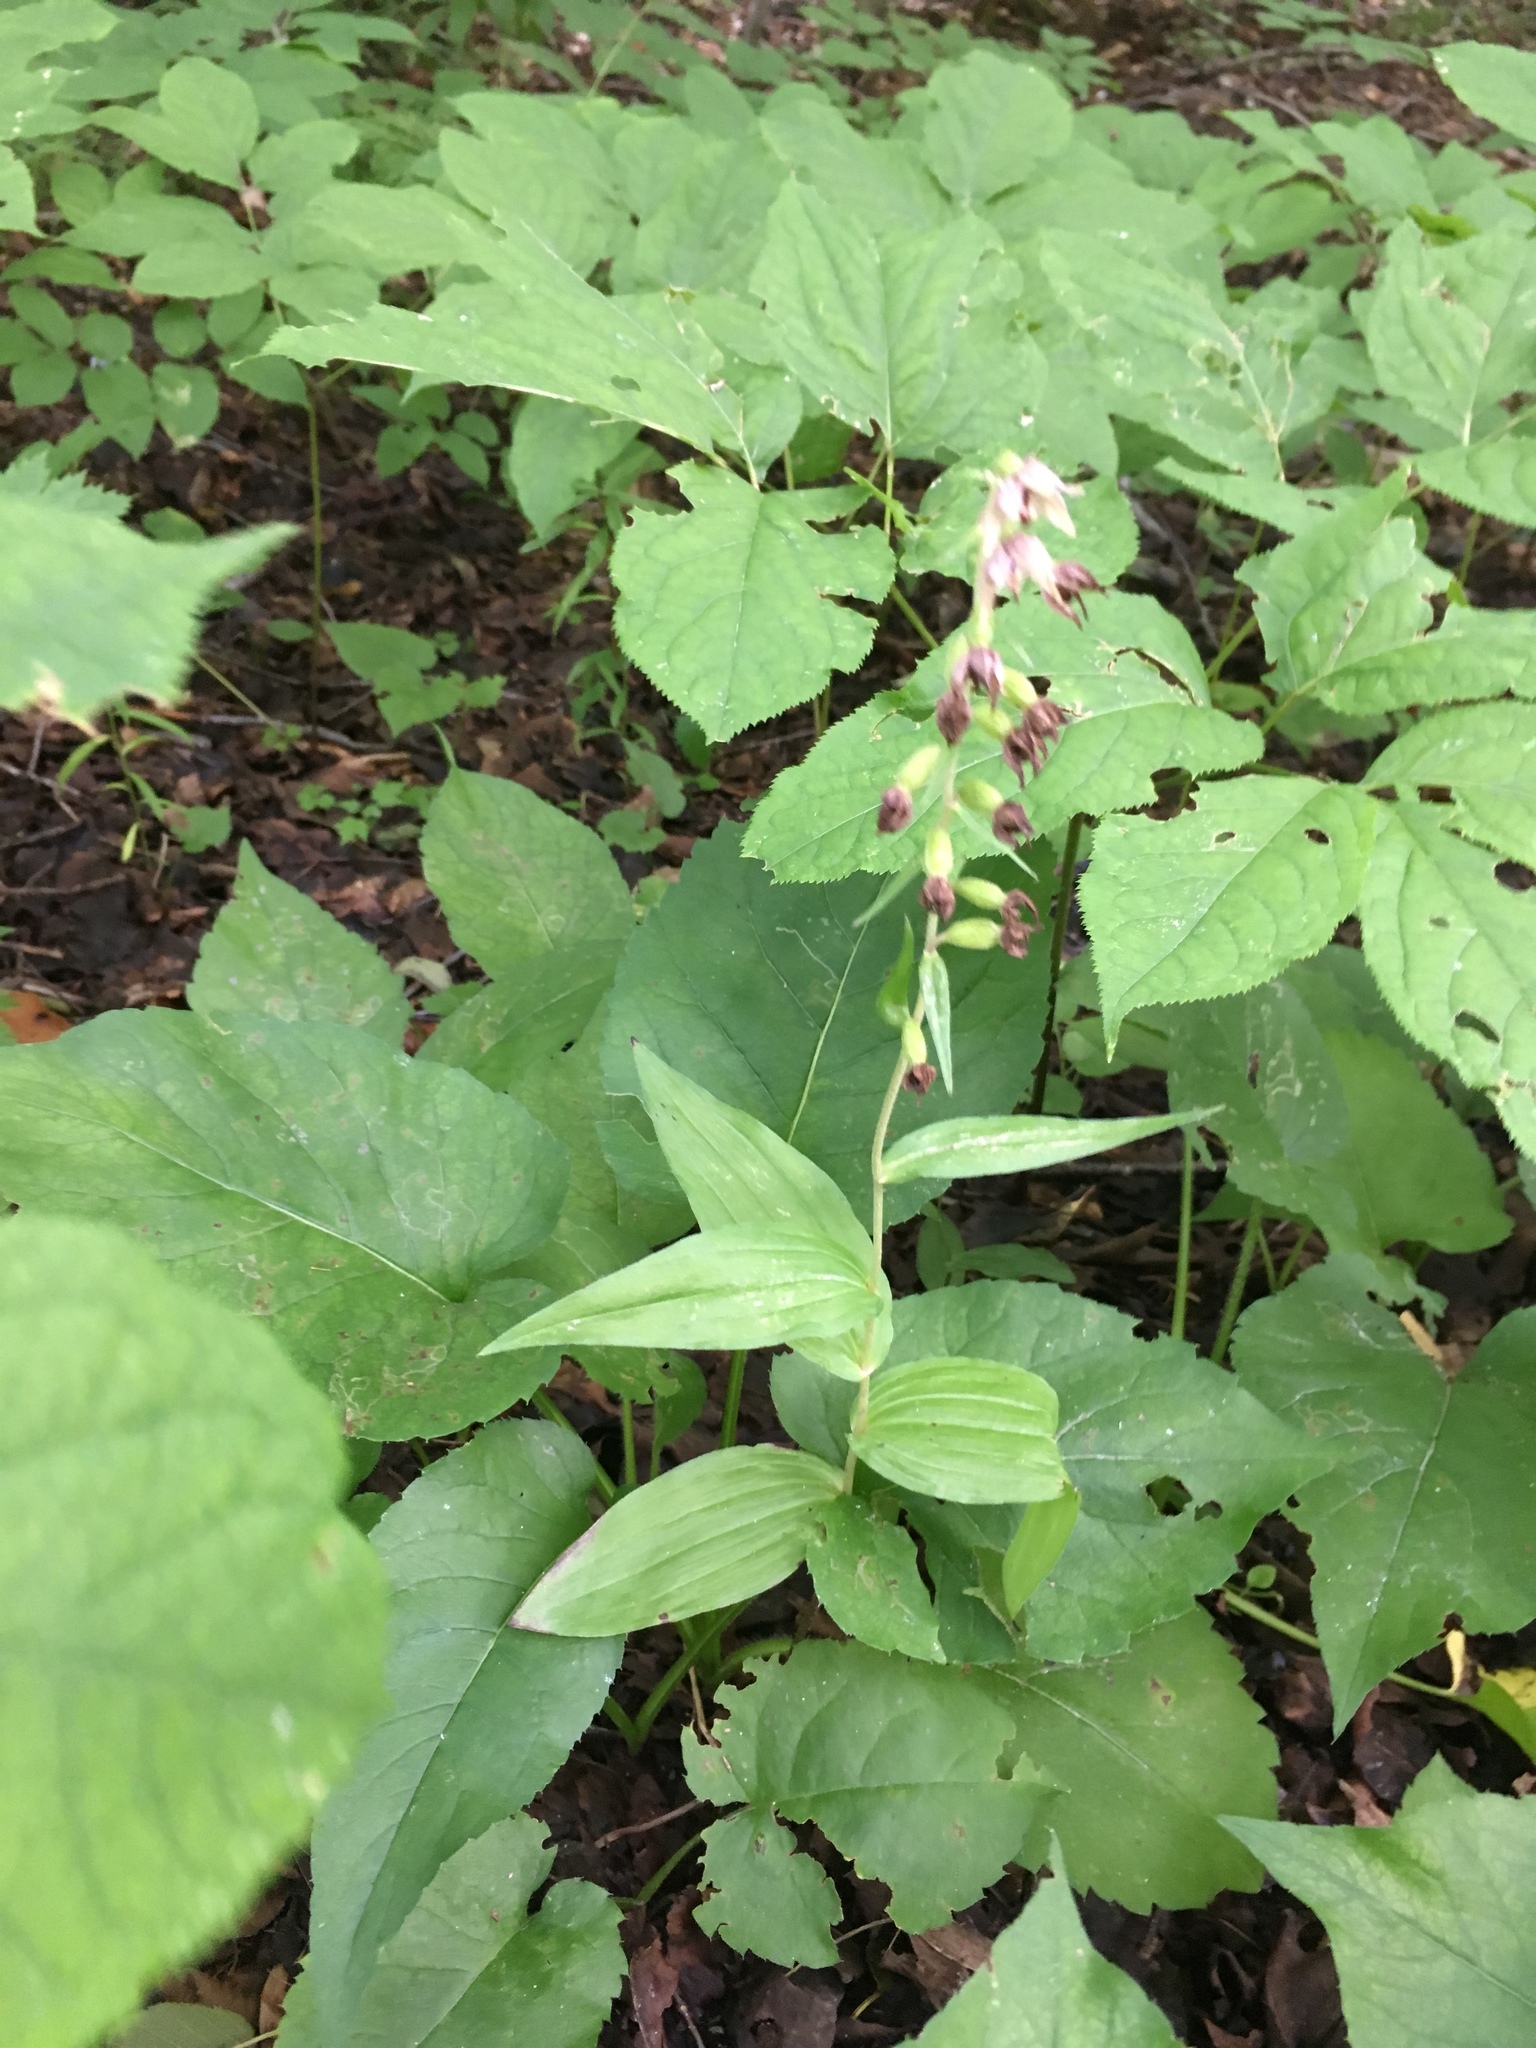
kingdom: Plantae
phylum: Tracheophyta
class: Liliopsida
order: Asparagales
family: Orchidaceae
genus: Epipactis
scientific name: Epipactis helleborine
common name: Broad-leaved helleborine
